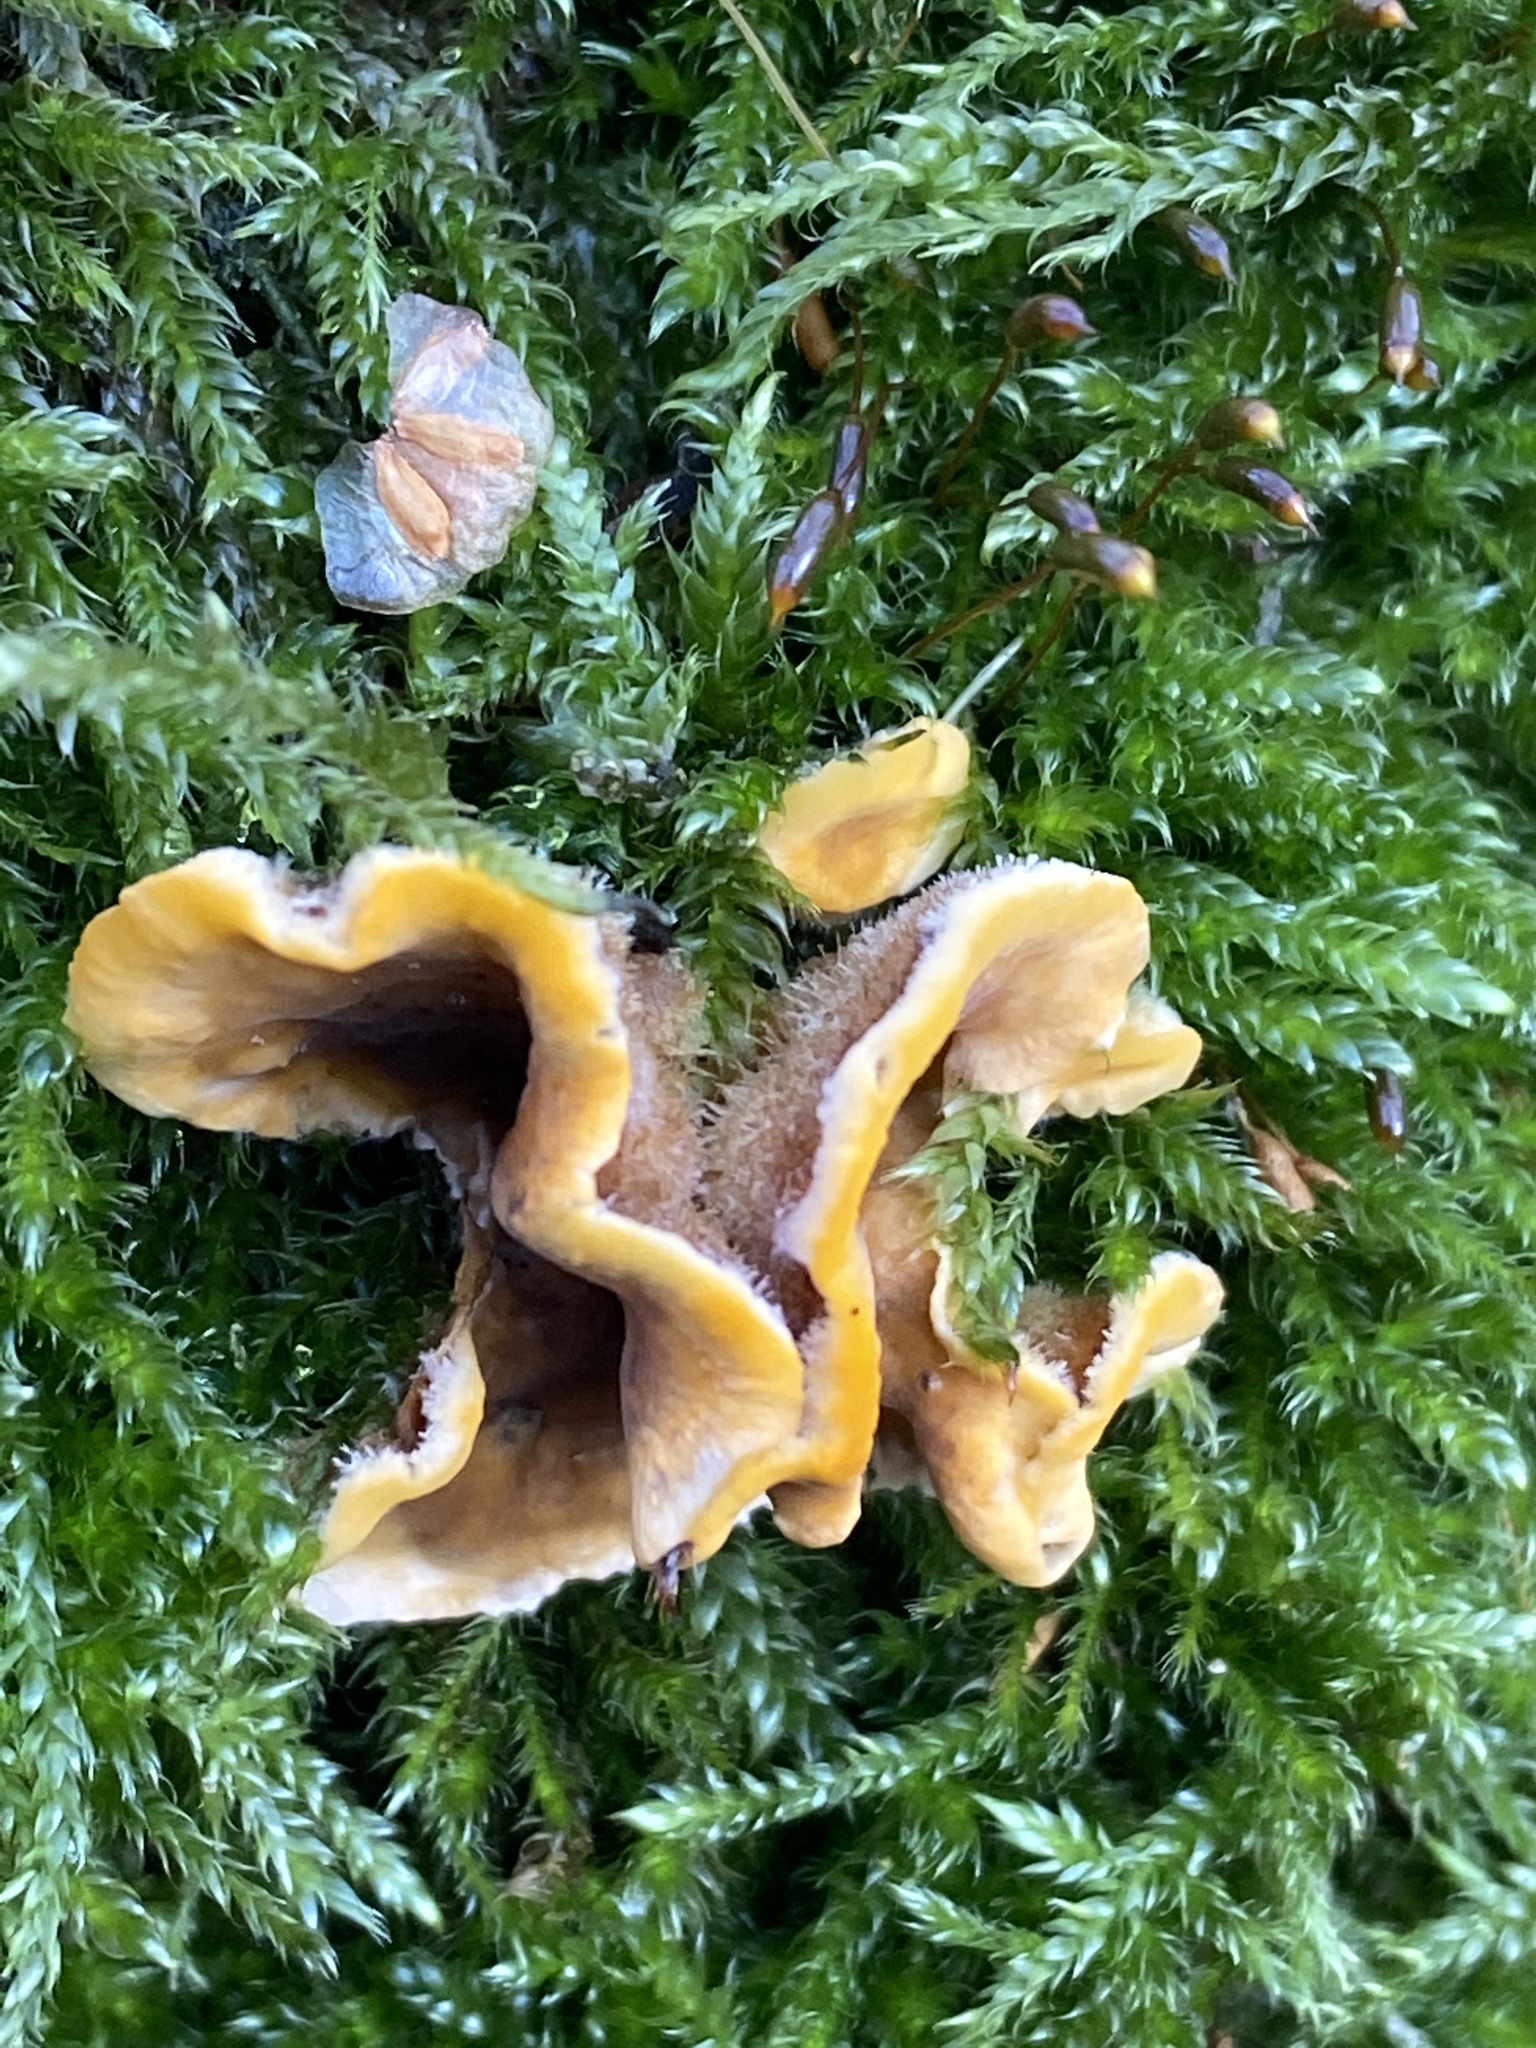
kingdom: Fungi
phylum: Basidiomycota
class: Agaricomycetes
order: Russulales
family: Stereaceae
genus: Stereum
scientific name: Stereum hirsutum
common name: Hairy curtain crust
